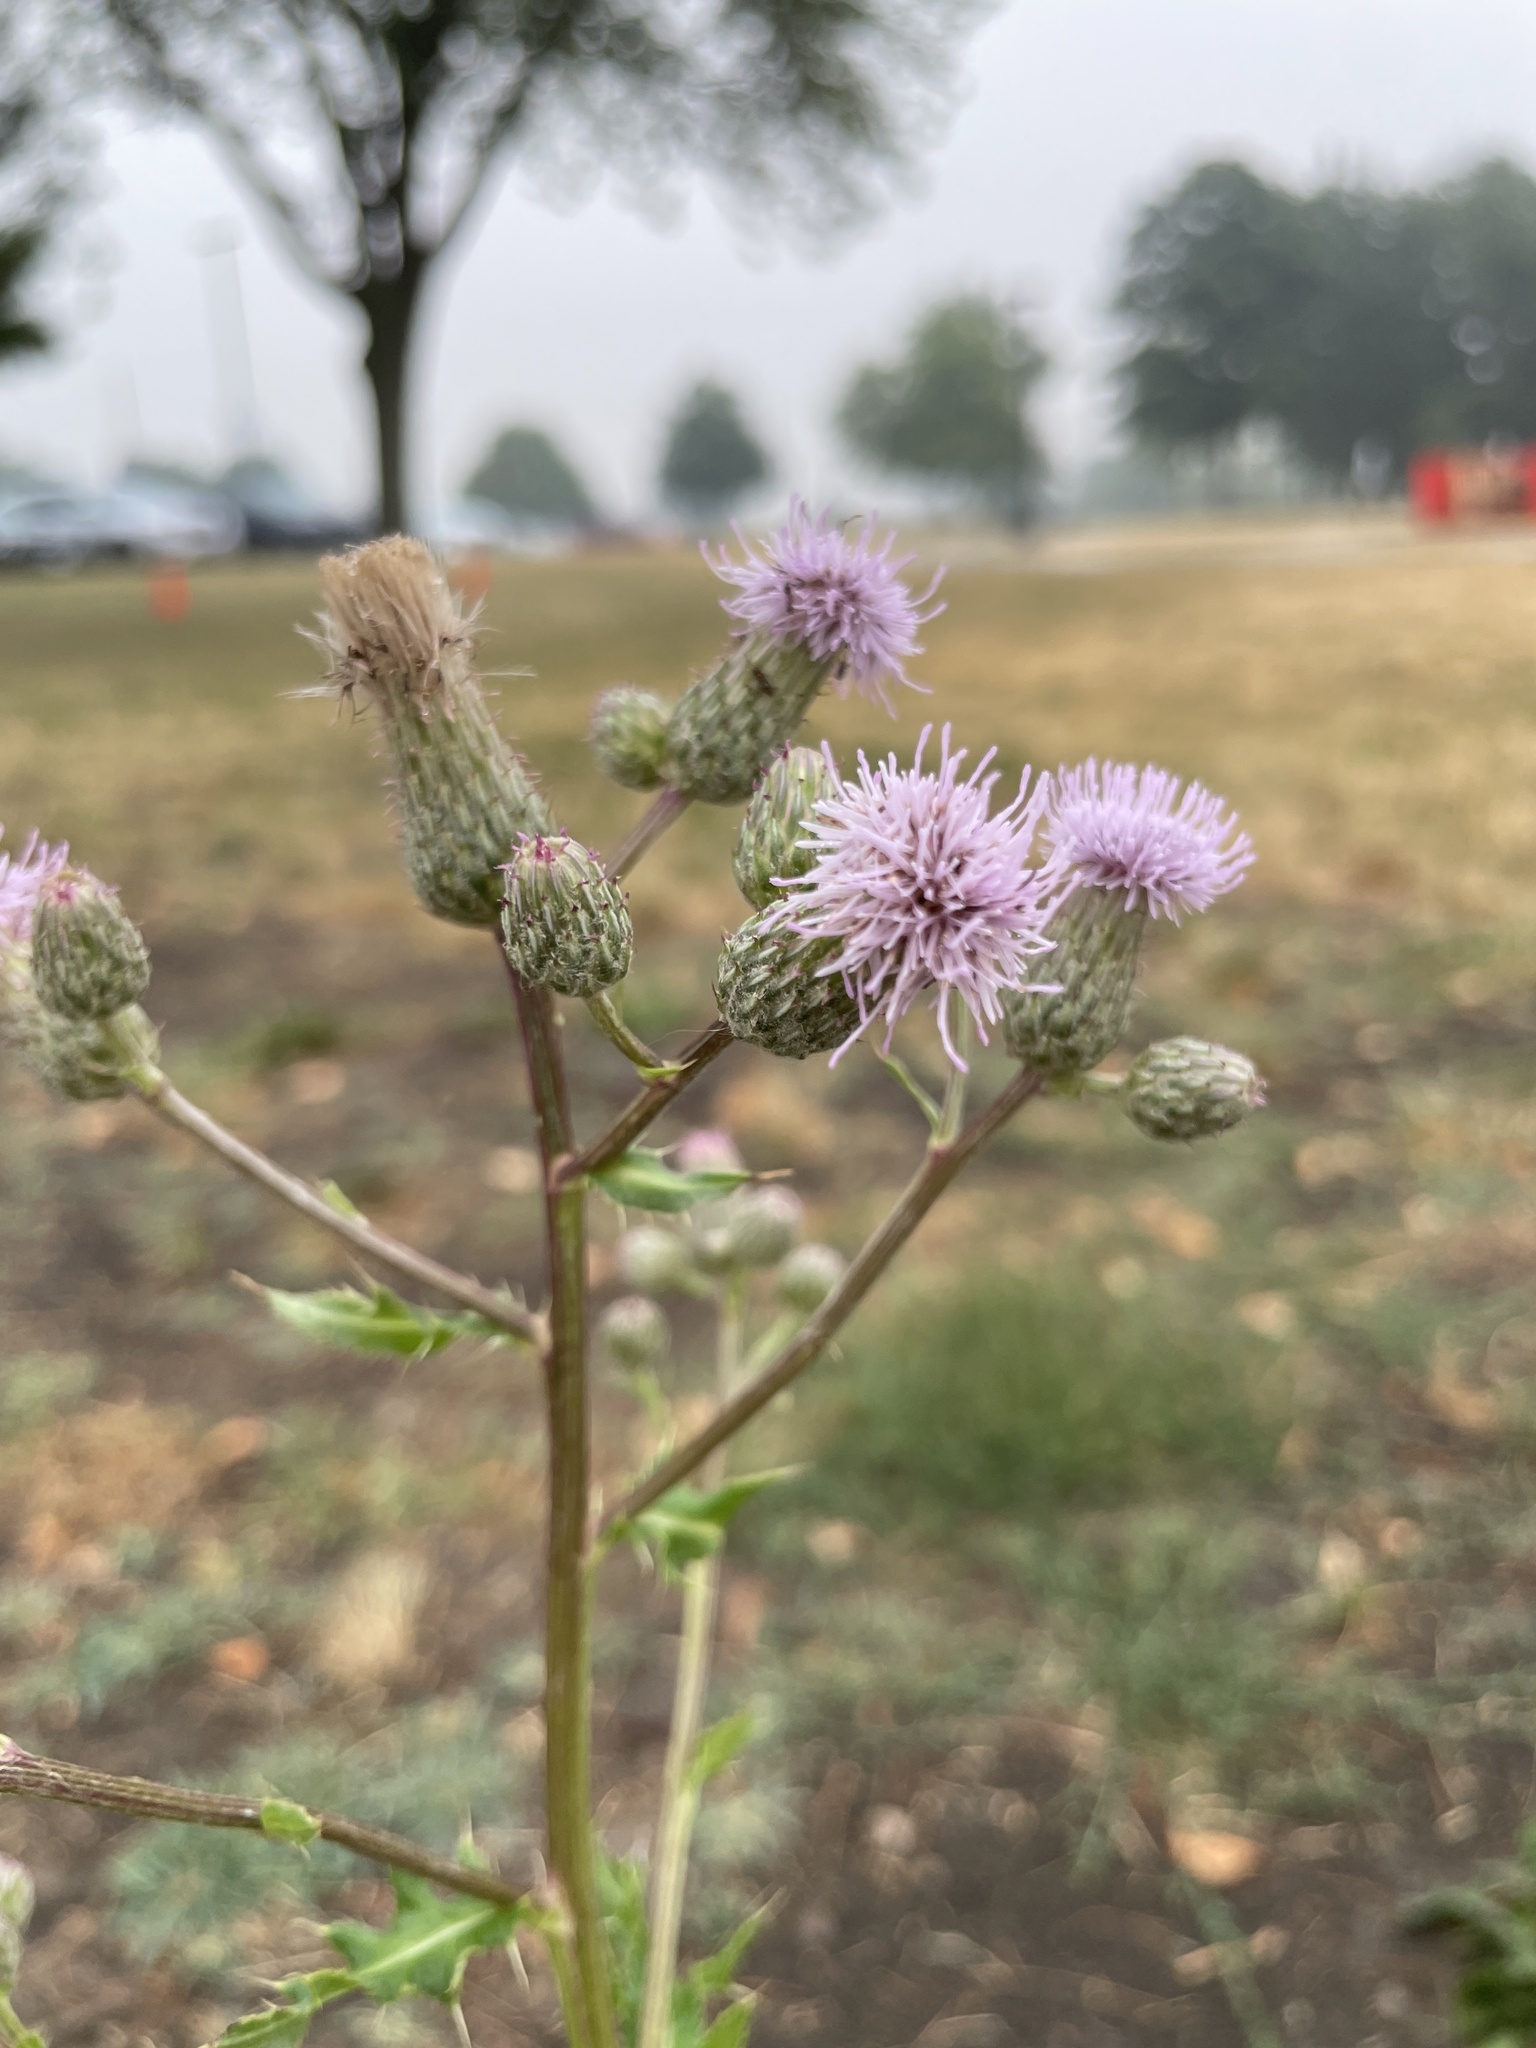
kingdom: Plantae
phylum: Tracheophyta
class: Magnoliopsida
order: Asterales
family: Asteraceae
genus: Cirsium
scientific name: Cirsium arvense
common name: Creeping thistle
